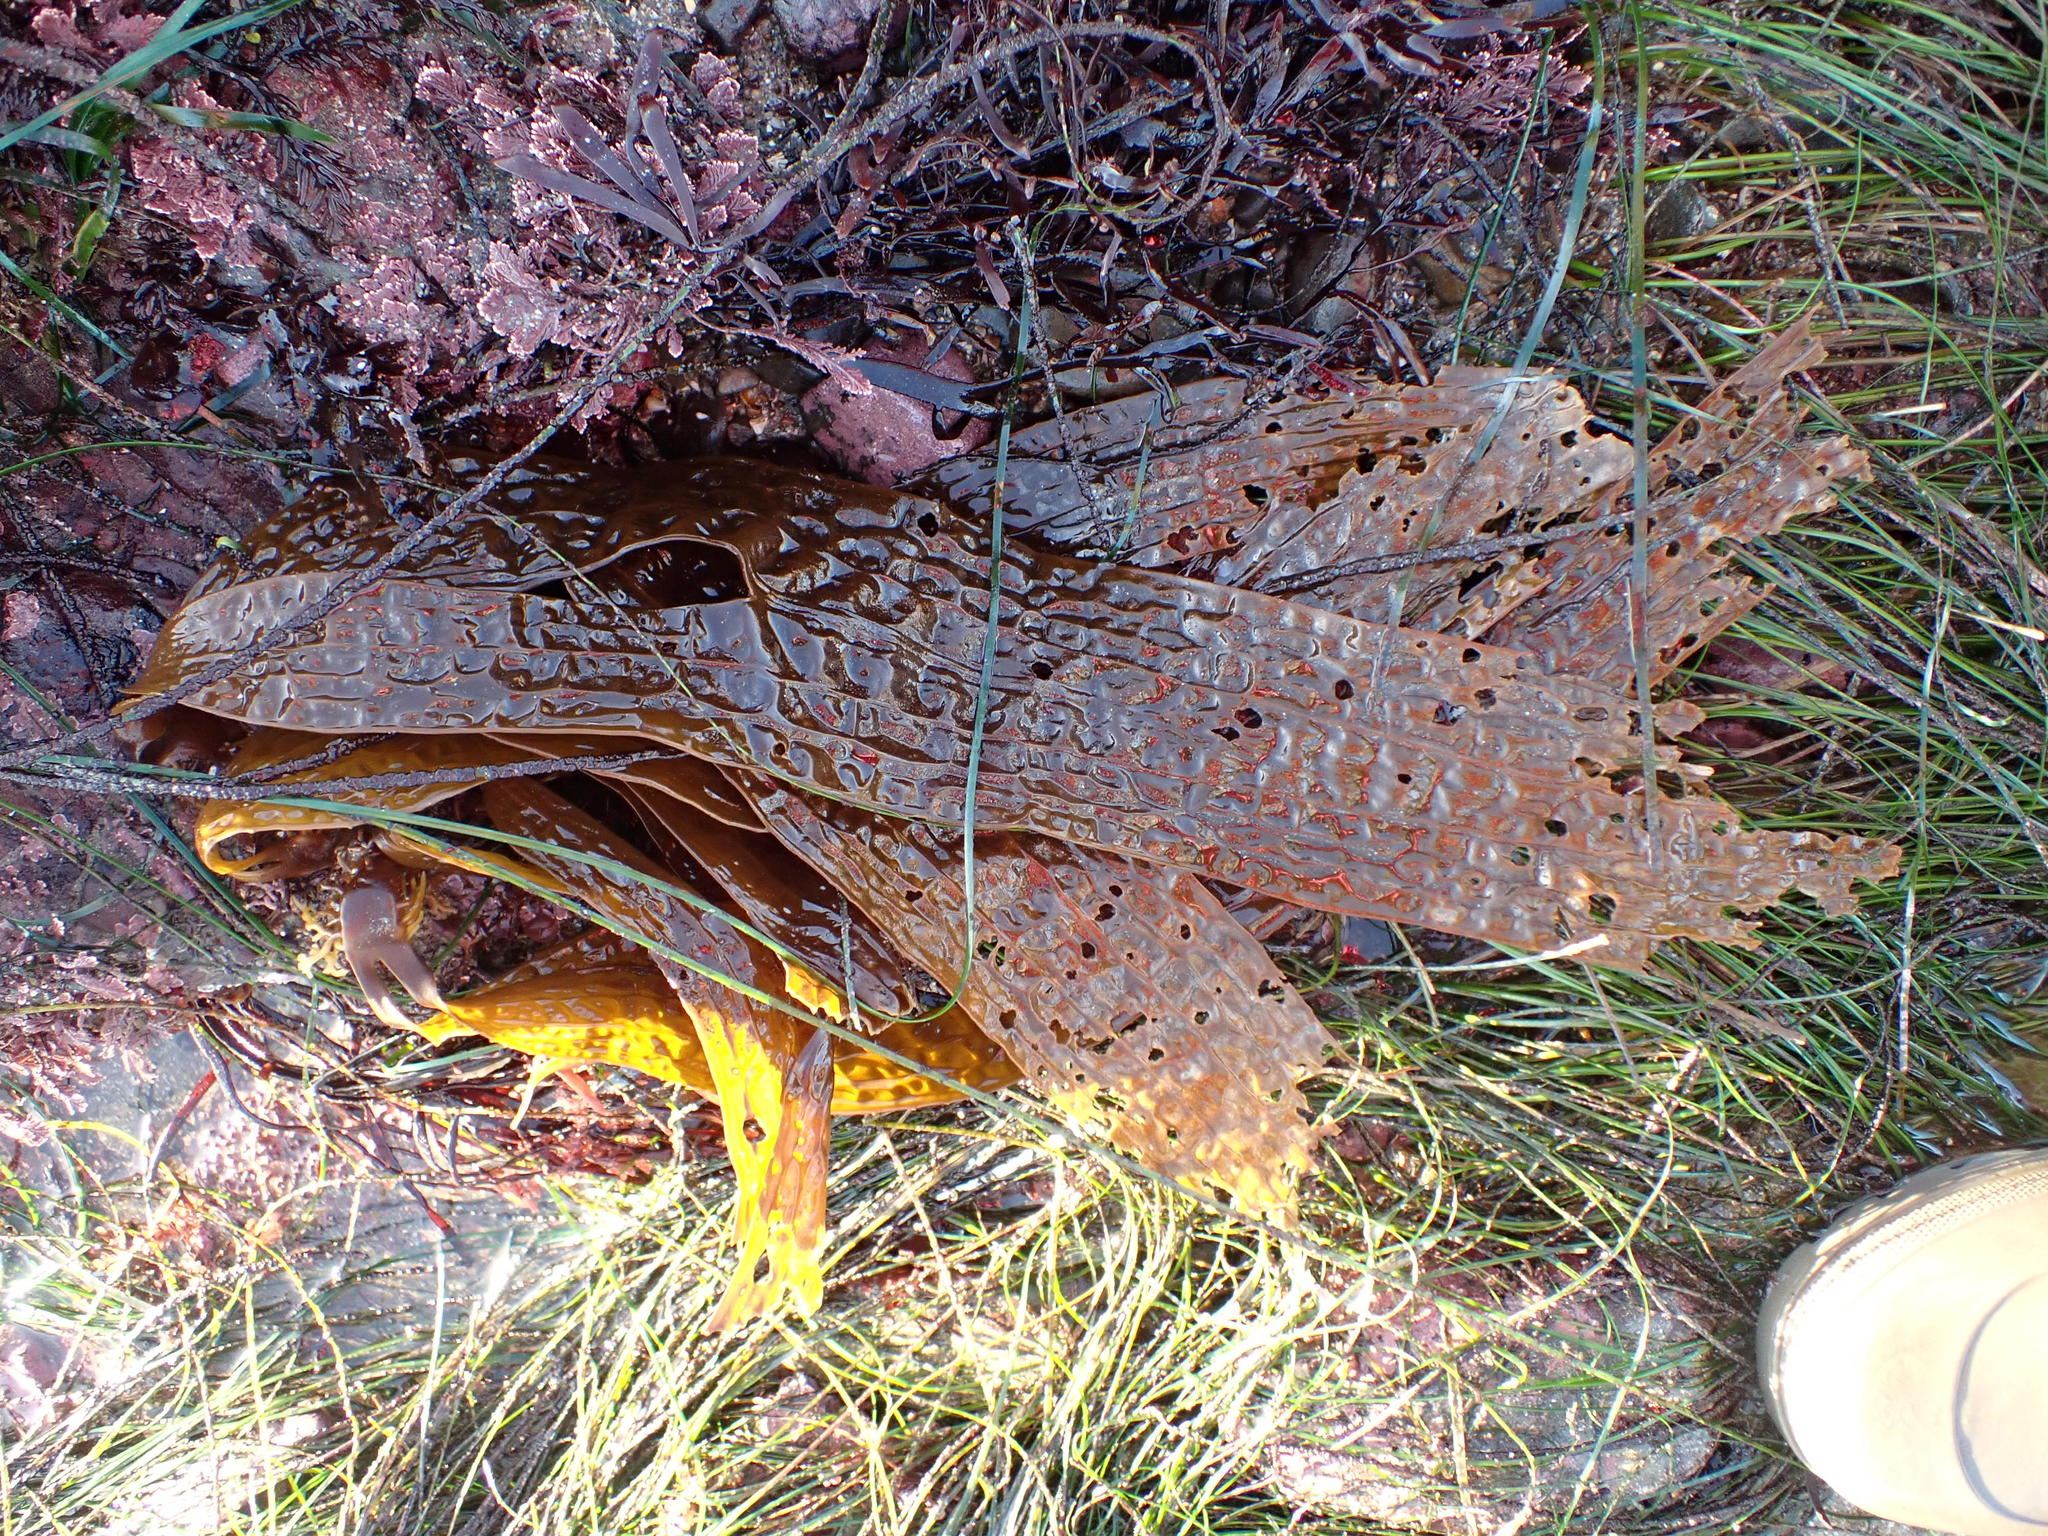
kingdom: Chromista
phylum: Ochrophyta
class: Phaeophyceae
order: Laminariales
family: Costariaceae
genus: Dictyoneurum
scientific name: Dictyoneurum californicum
